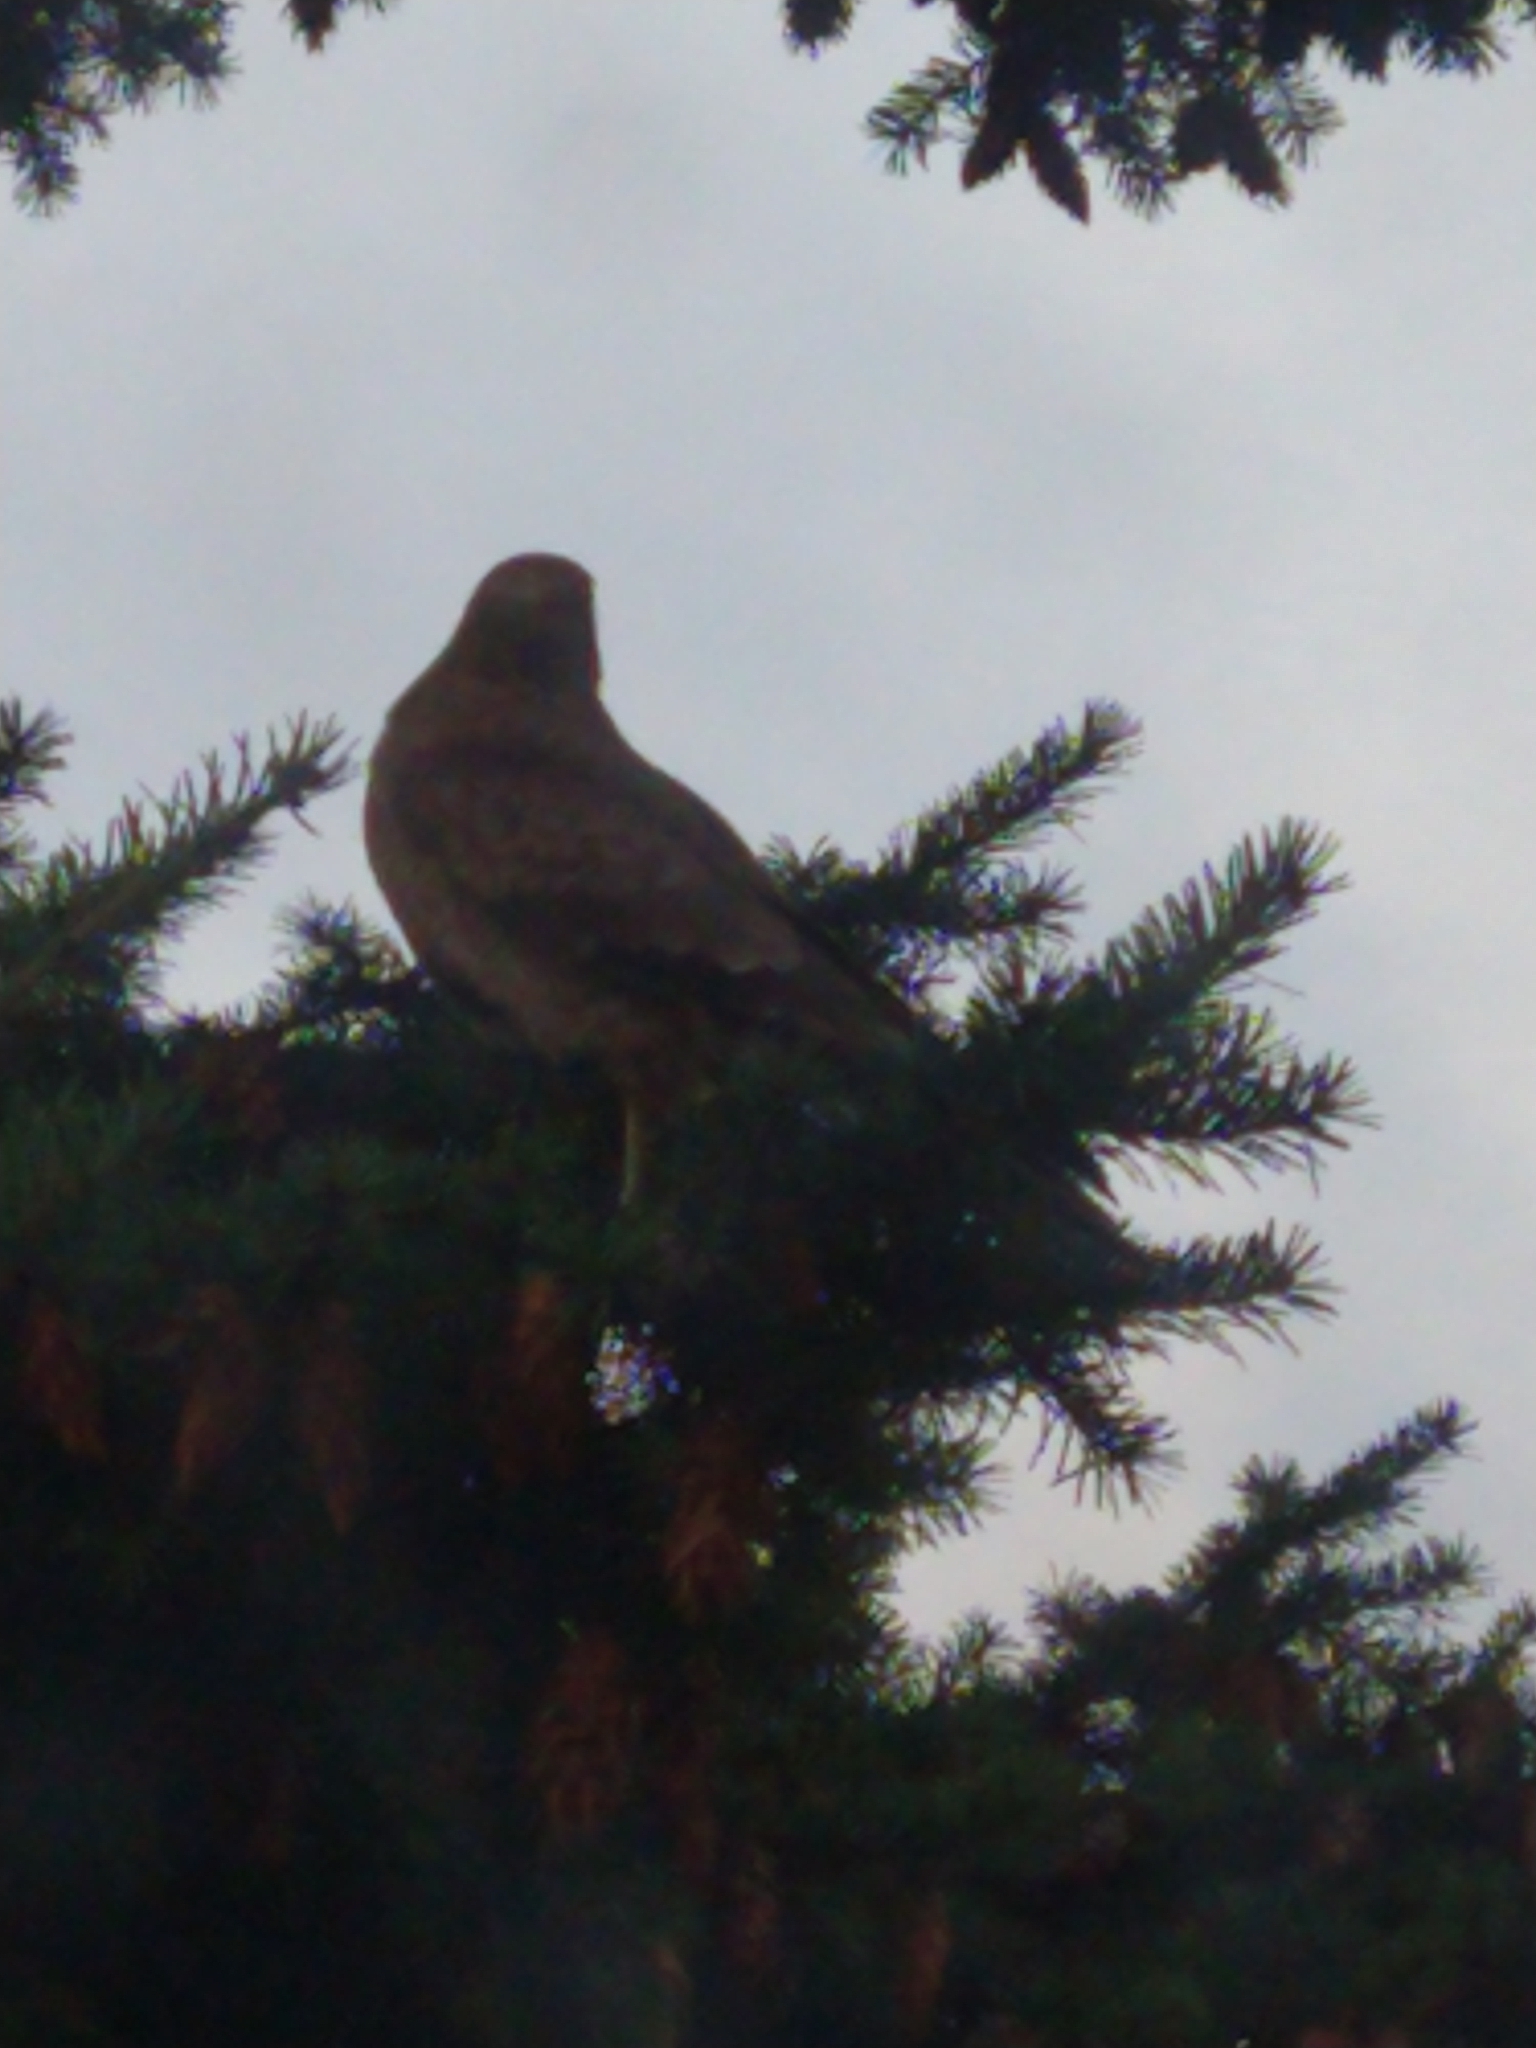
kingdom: Animalia
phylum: Chordata
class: Aves
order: Falconiformes
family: Falconidae
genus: Daptrius
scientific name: Daptrius
